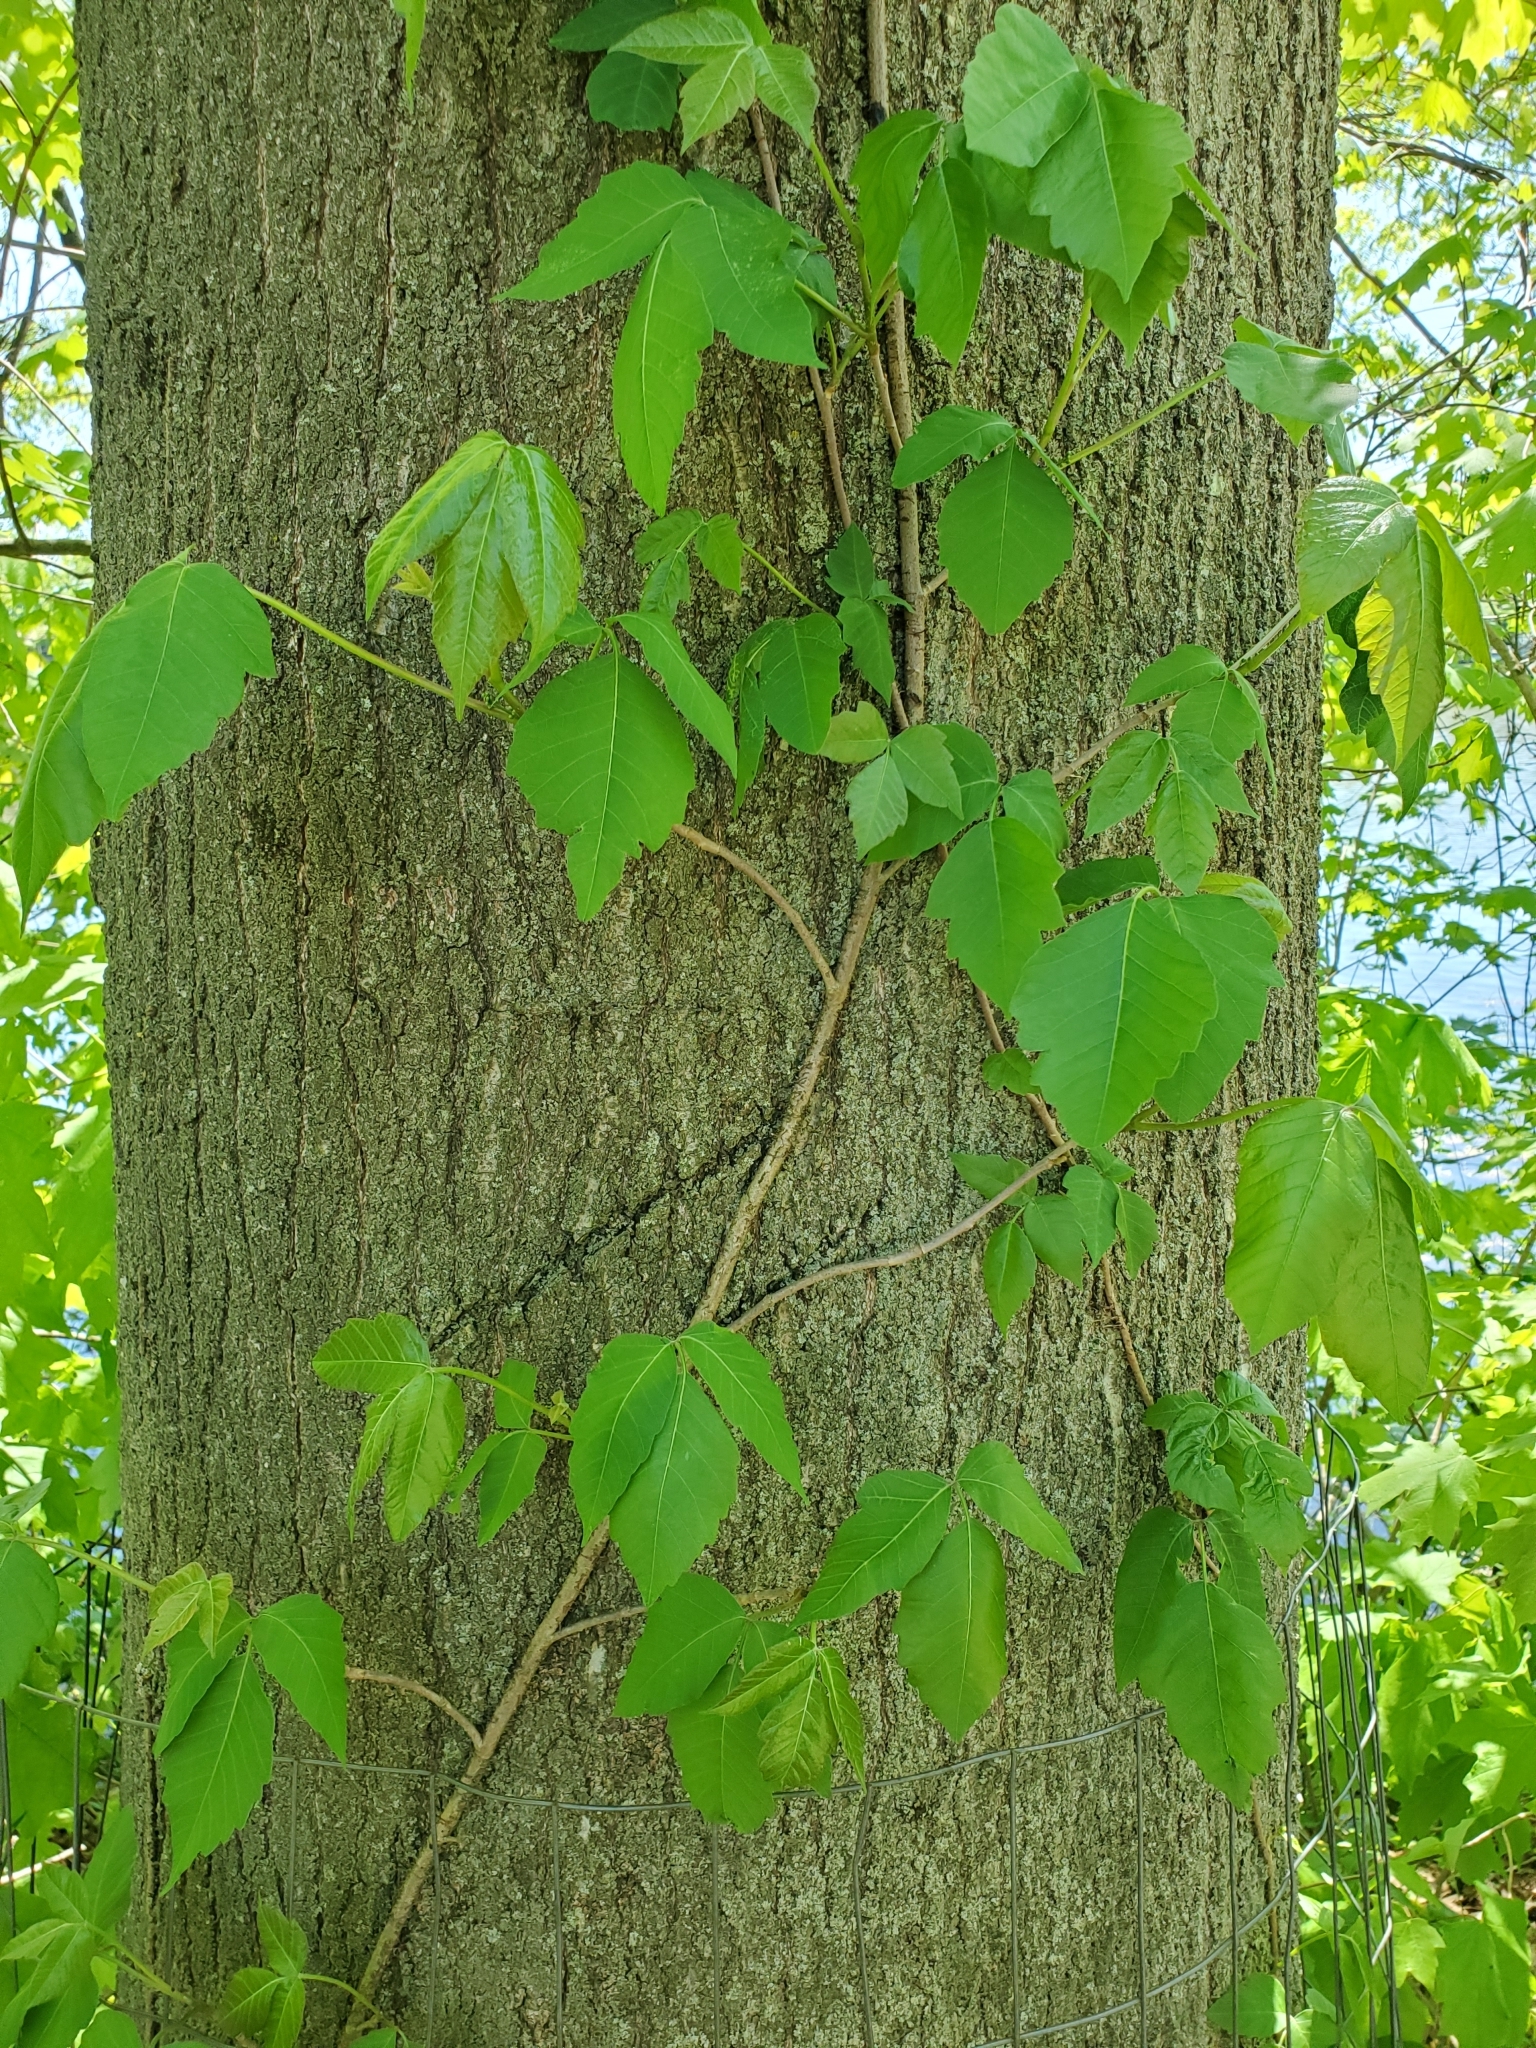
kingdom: Plantae
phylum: Tracheophyta
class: Magnoliopsida
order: Sapindales
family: Anacardiaceae
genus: Toxicodendron
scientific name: Toxicodendron radicans
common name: Poison ivy
